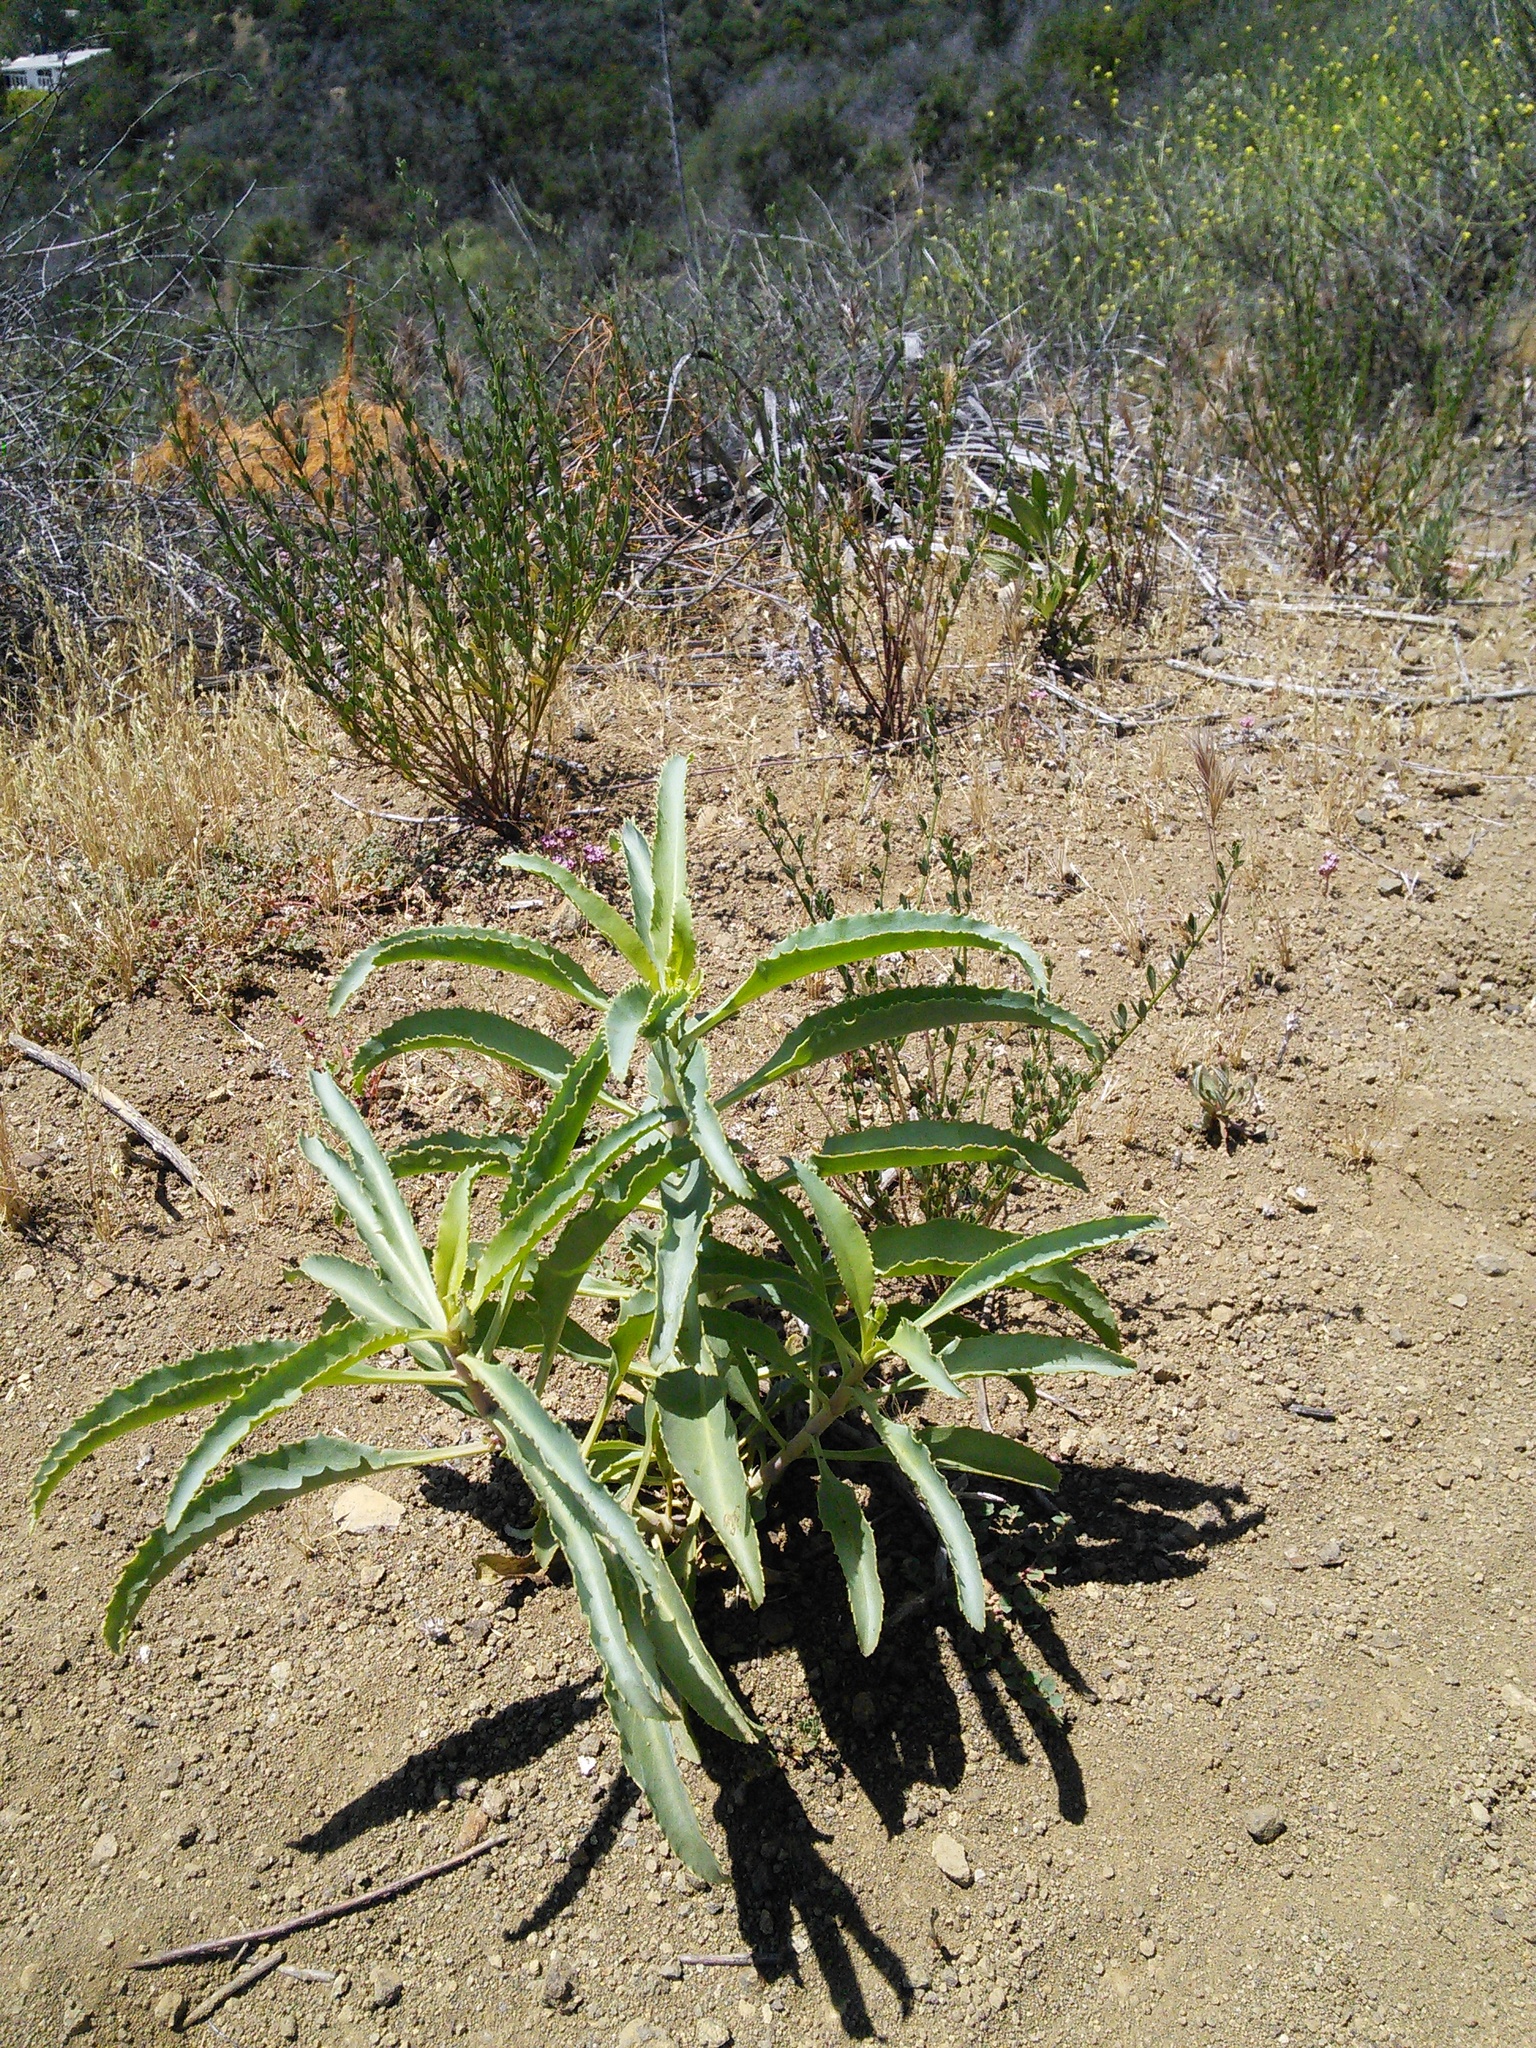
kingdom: Plantae
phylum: Tracheophyta
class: Magnoliopsida
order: Lamiales
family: Plantaginaceae
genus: Penstemon
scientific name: Penstemon spectabilis
